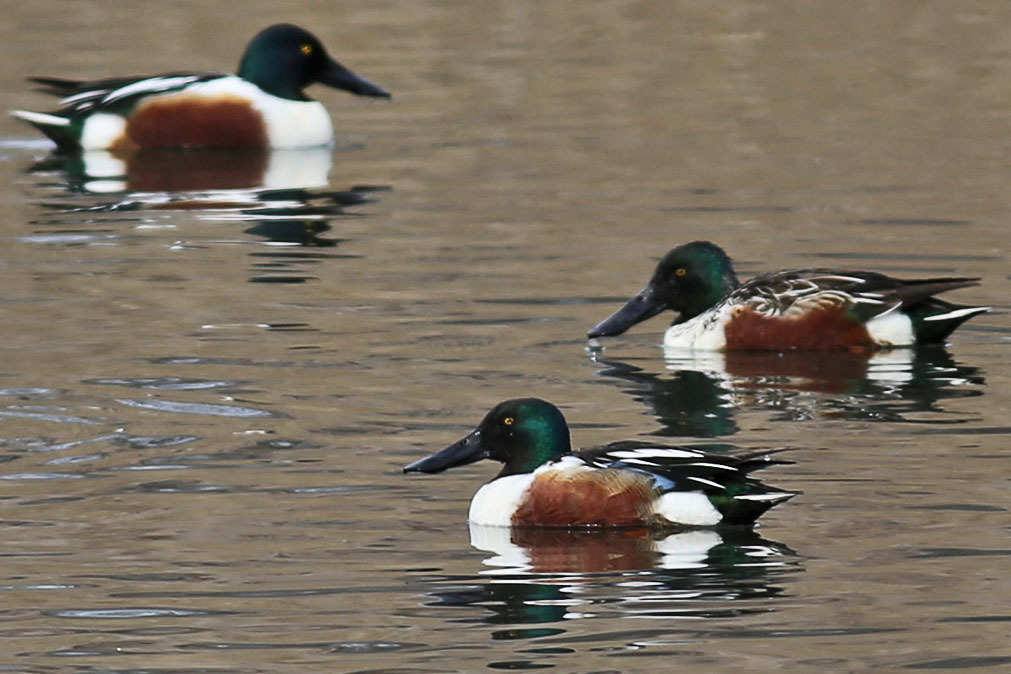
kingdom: Animalia
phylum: Chordata
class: Aves
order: Anseriformes
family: Anatidae
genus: Spatula
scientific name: Spatula clypeata
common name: Northern shoveler
